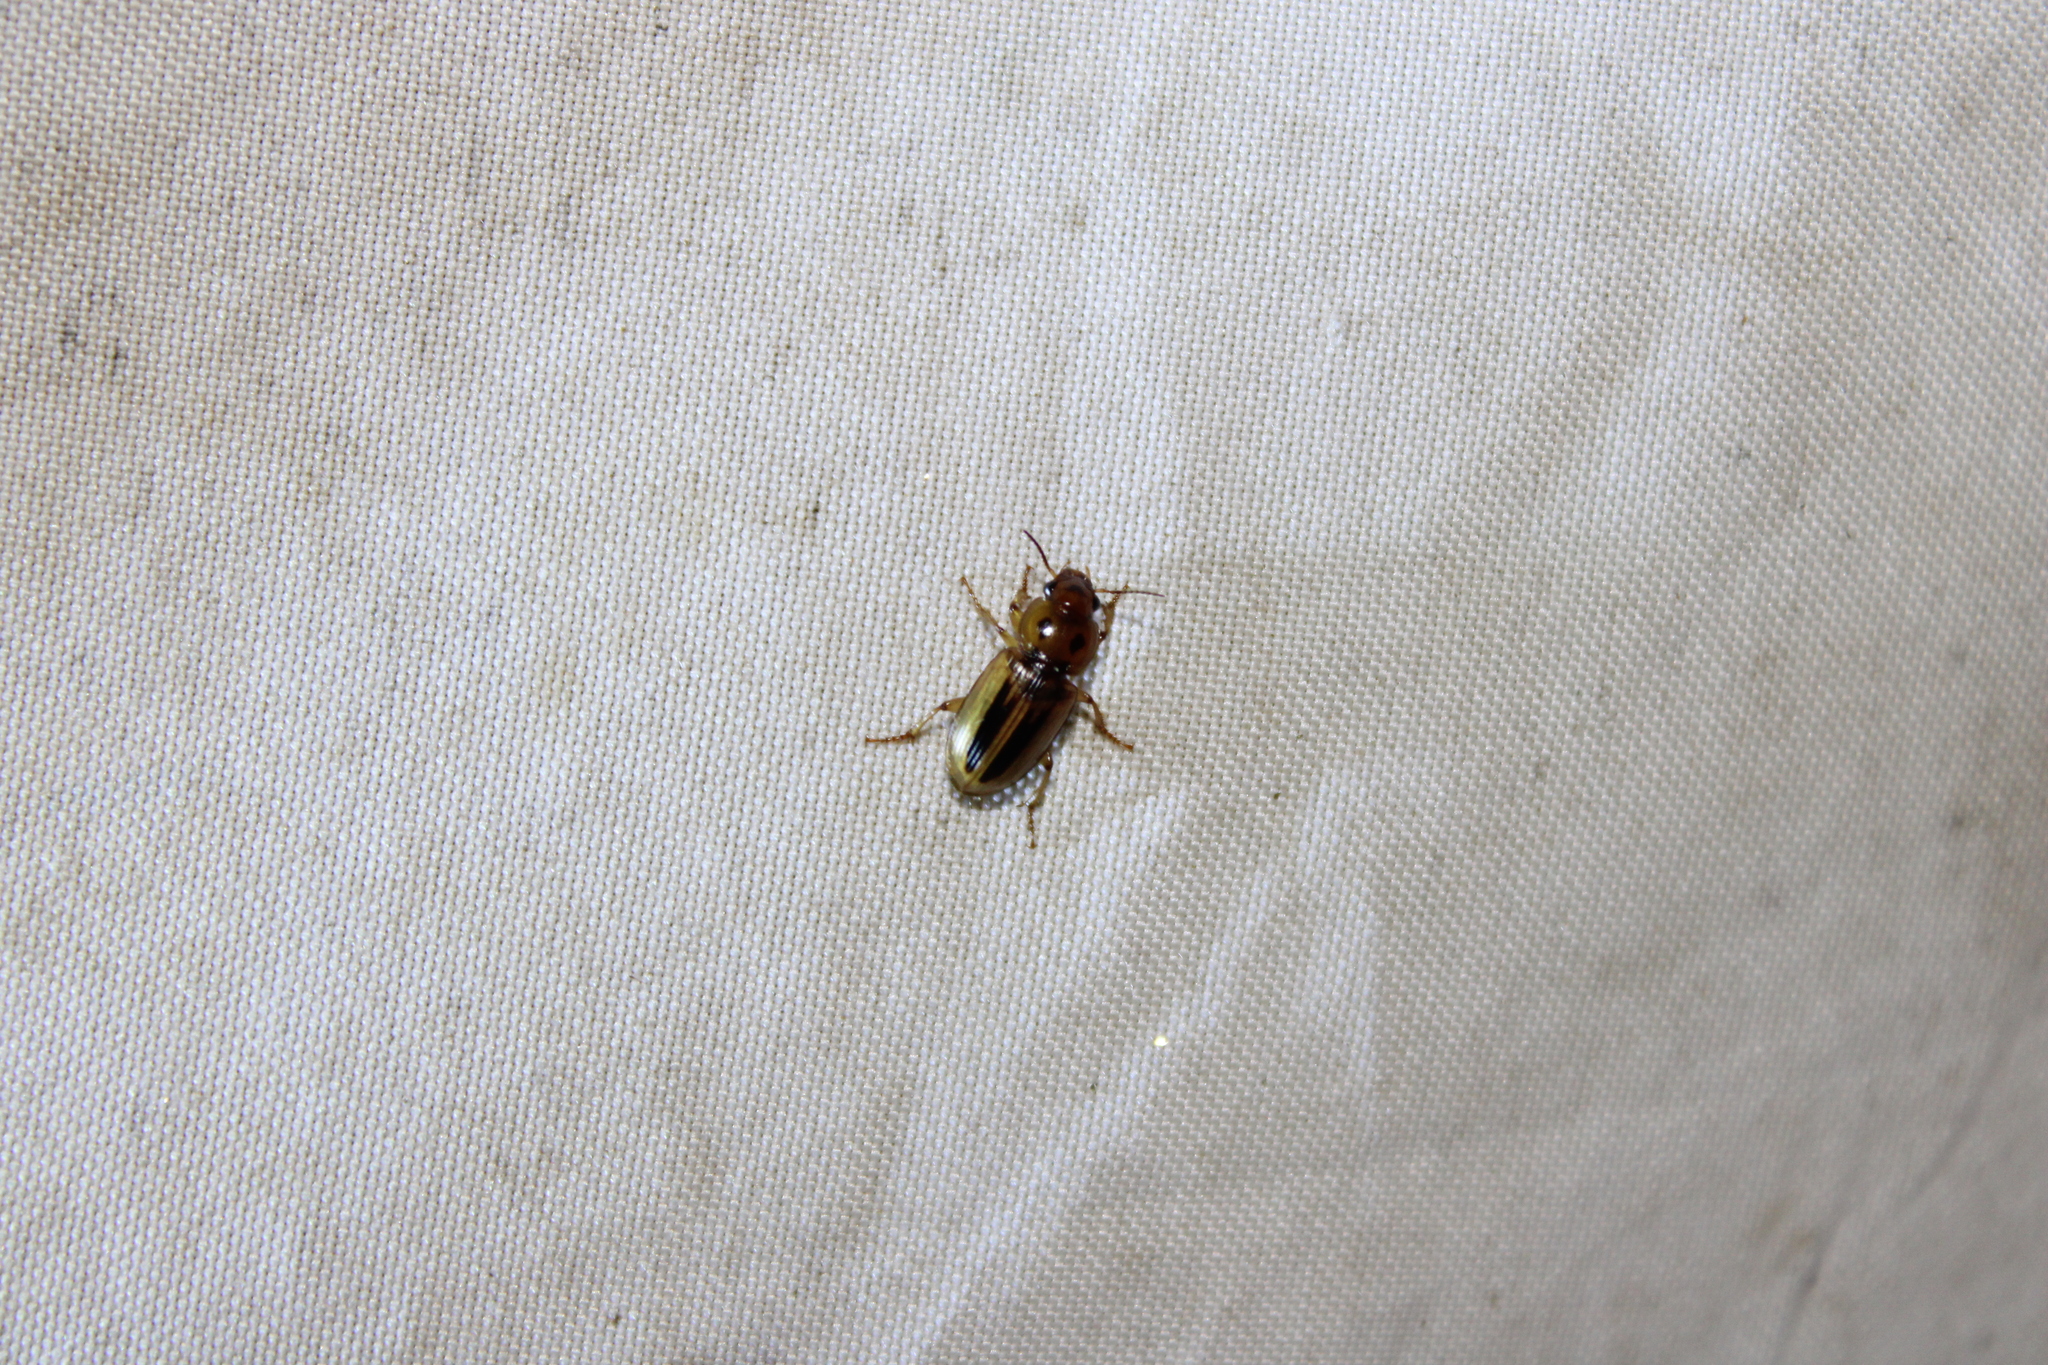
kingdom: Animalia
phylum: Arthropoda
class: Insecta
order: Coleoptera
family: Carabidae
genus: Stenolophus
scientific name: Stenolophus lineola
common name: Lined stenolophus
